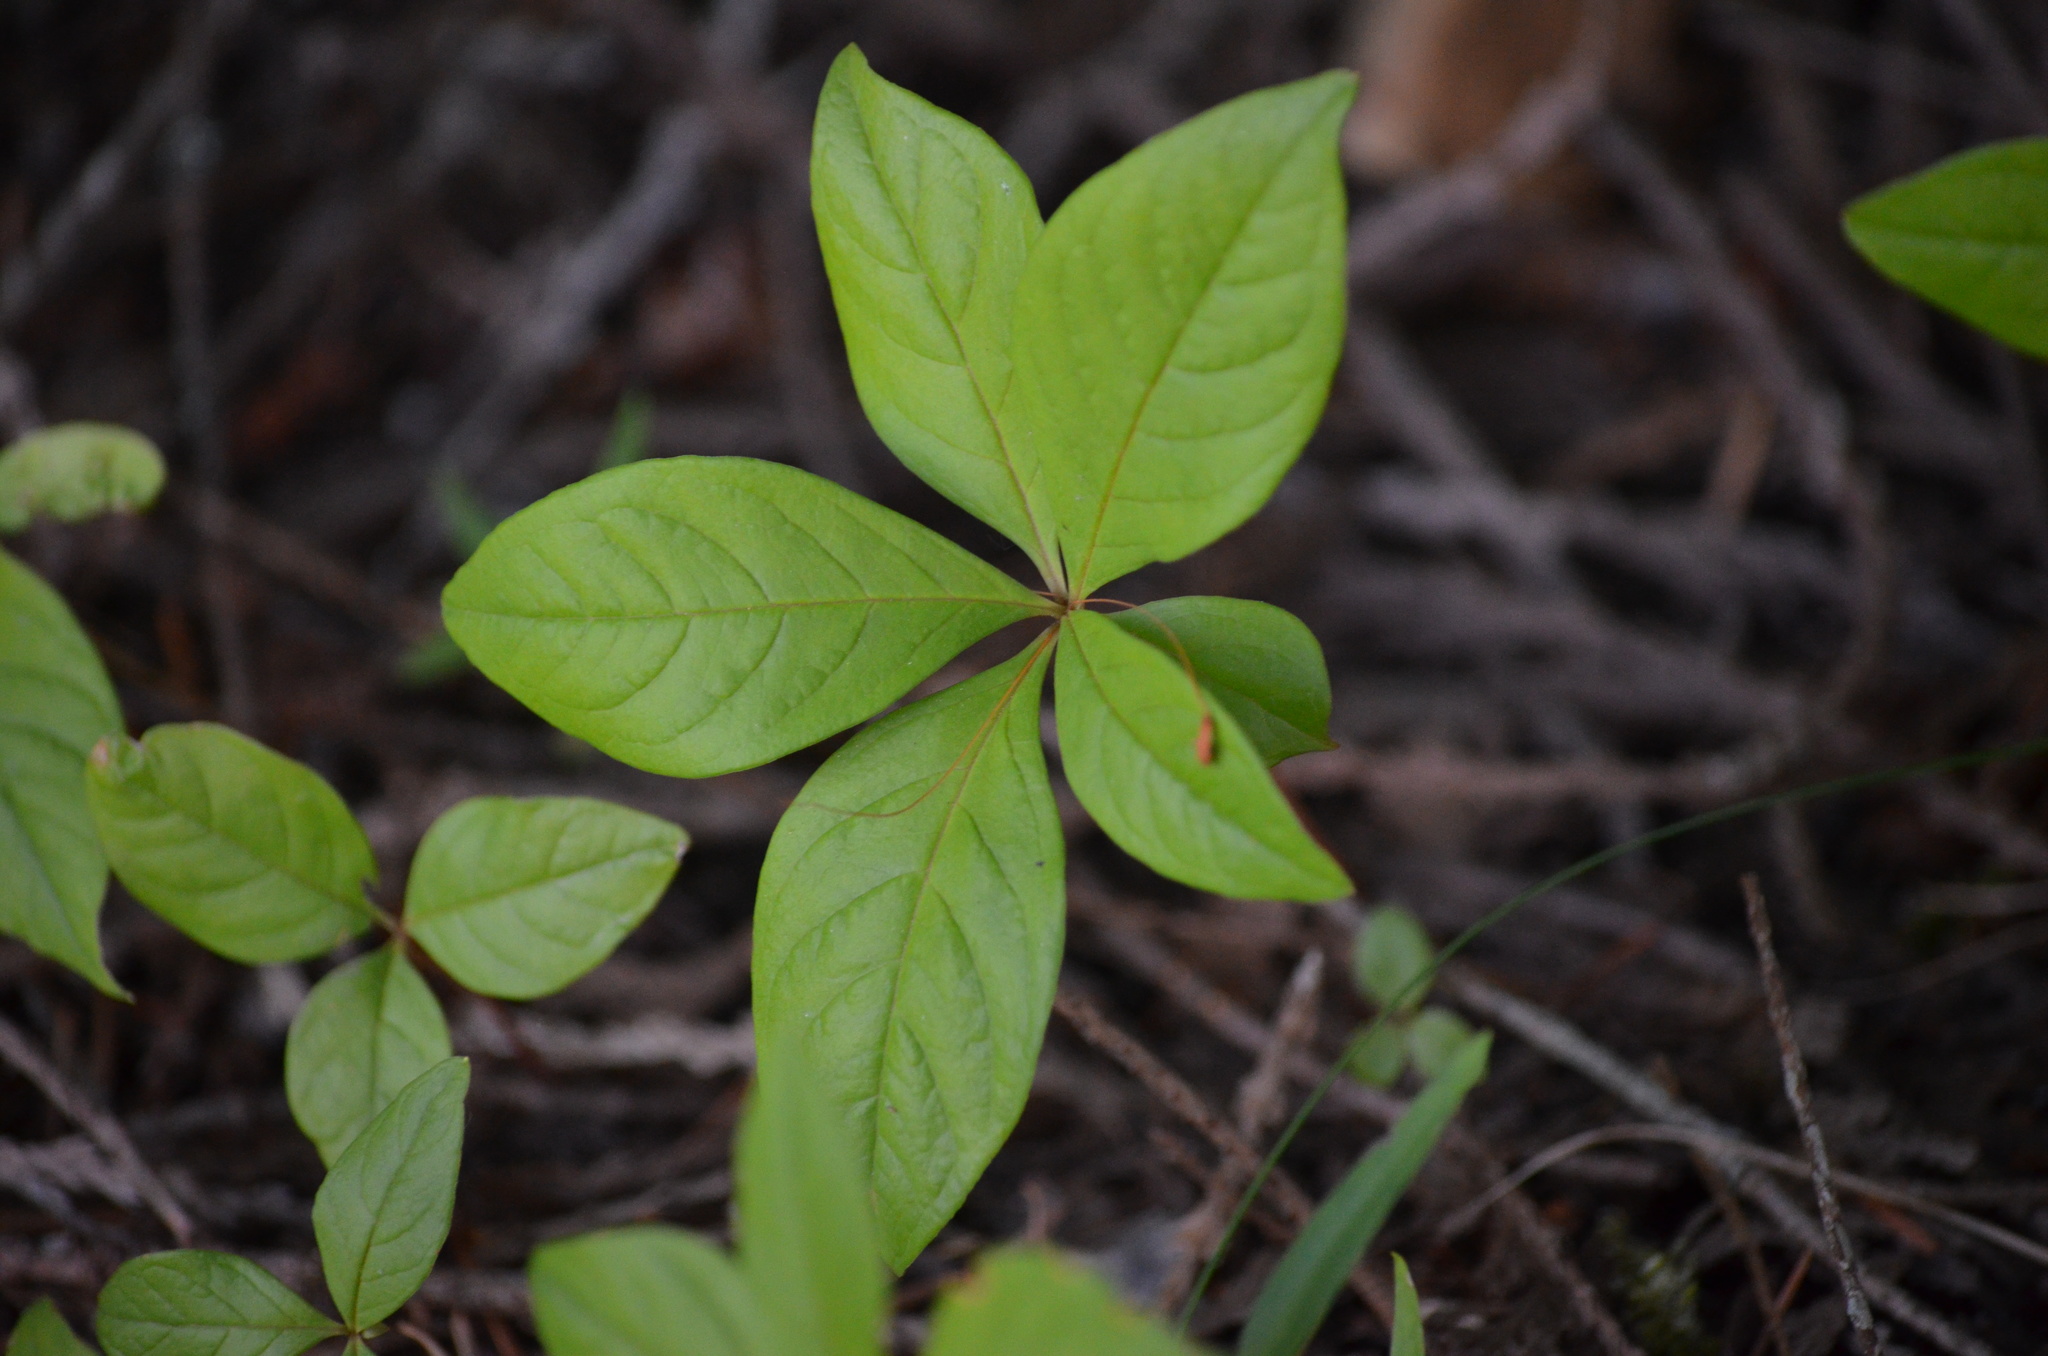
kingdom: Plantae
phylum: Tracheophyta
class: Magnoliopsida
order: Ericales
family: Primulaceae
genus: Lysimachia
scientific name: Lysimachia latifolia
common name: Pacific starflower
